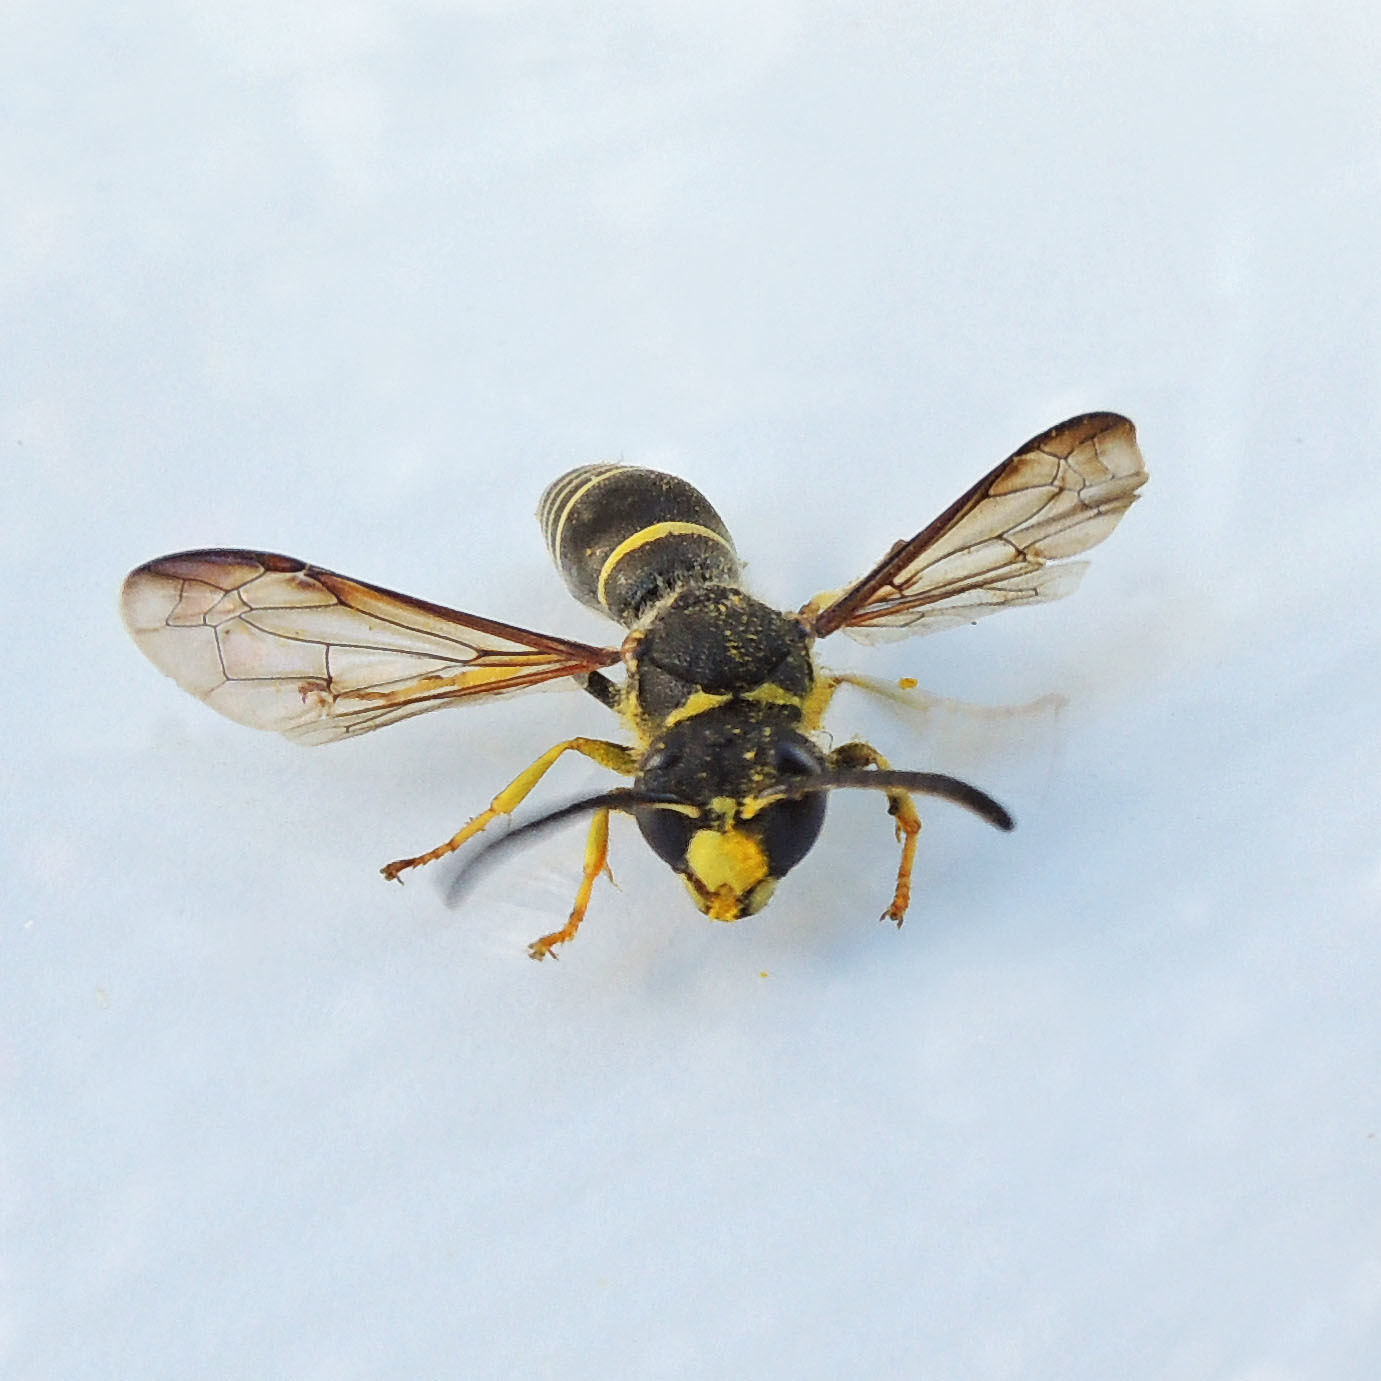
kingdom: Animalia
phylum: Arthropoda
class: Insecta
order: Hymenoptera
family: Vespidae
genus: Ancistrocerus
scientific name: Ancistrocerus
